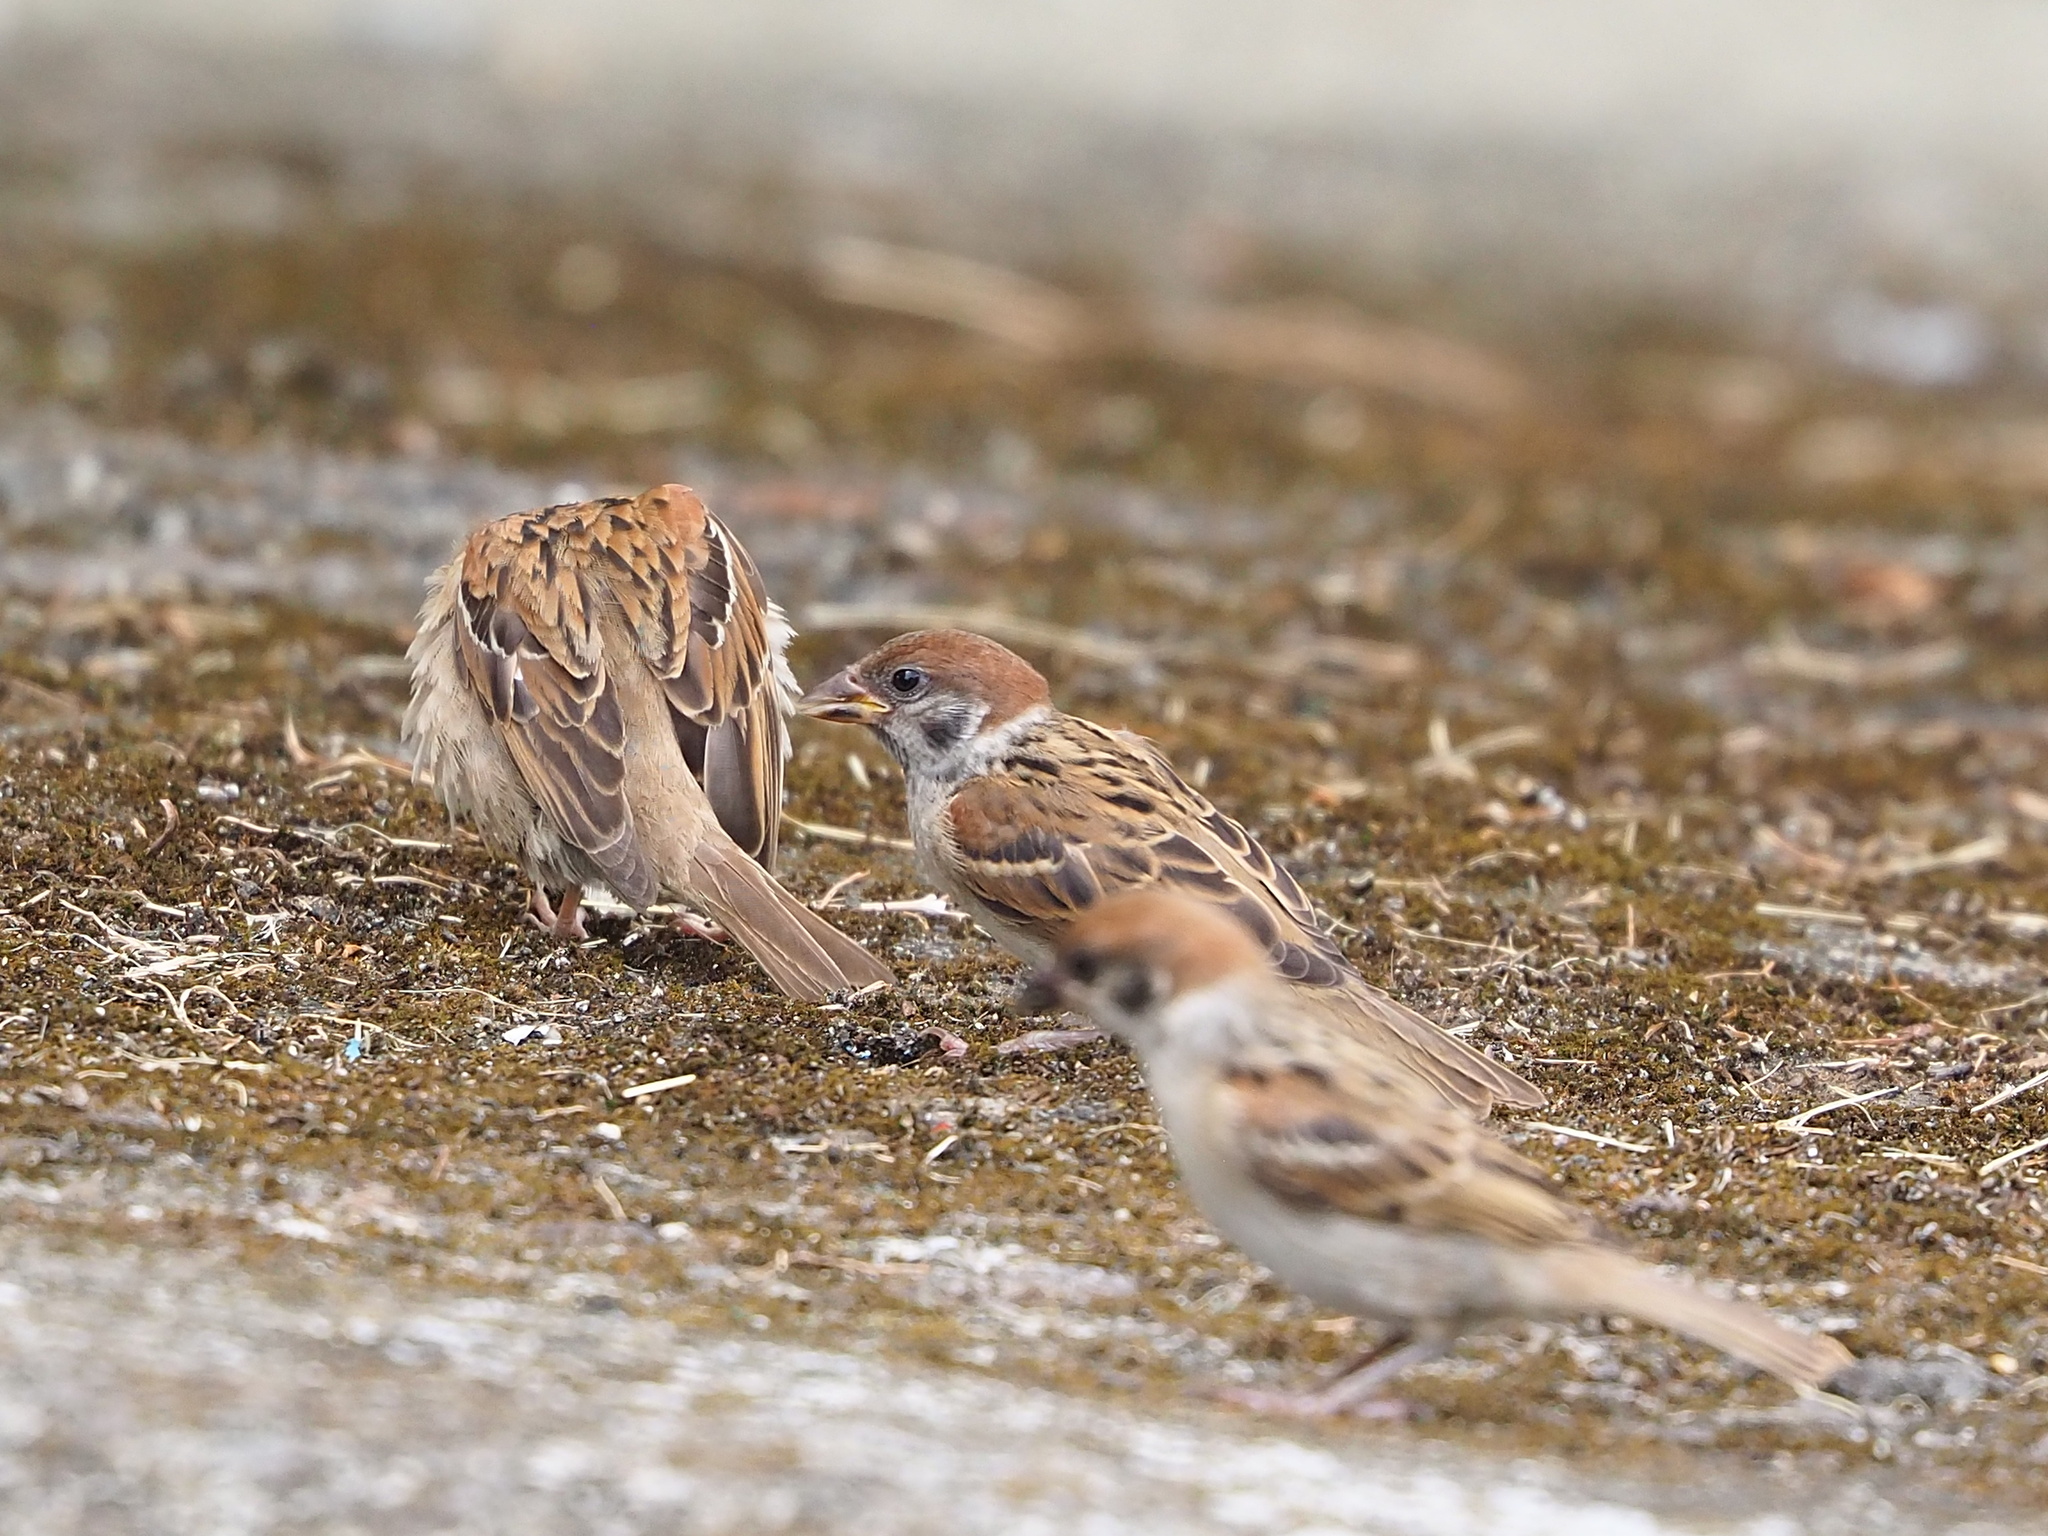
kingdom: Animalia
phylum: Chordata
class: Aves
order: Passeriformes
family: Passeridae
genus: Passer
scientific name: Passer montanus
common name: Eurasian tree sparrow
